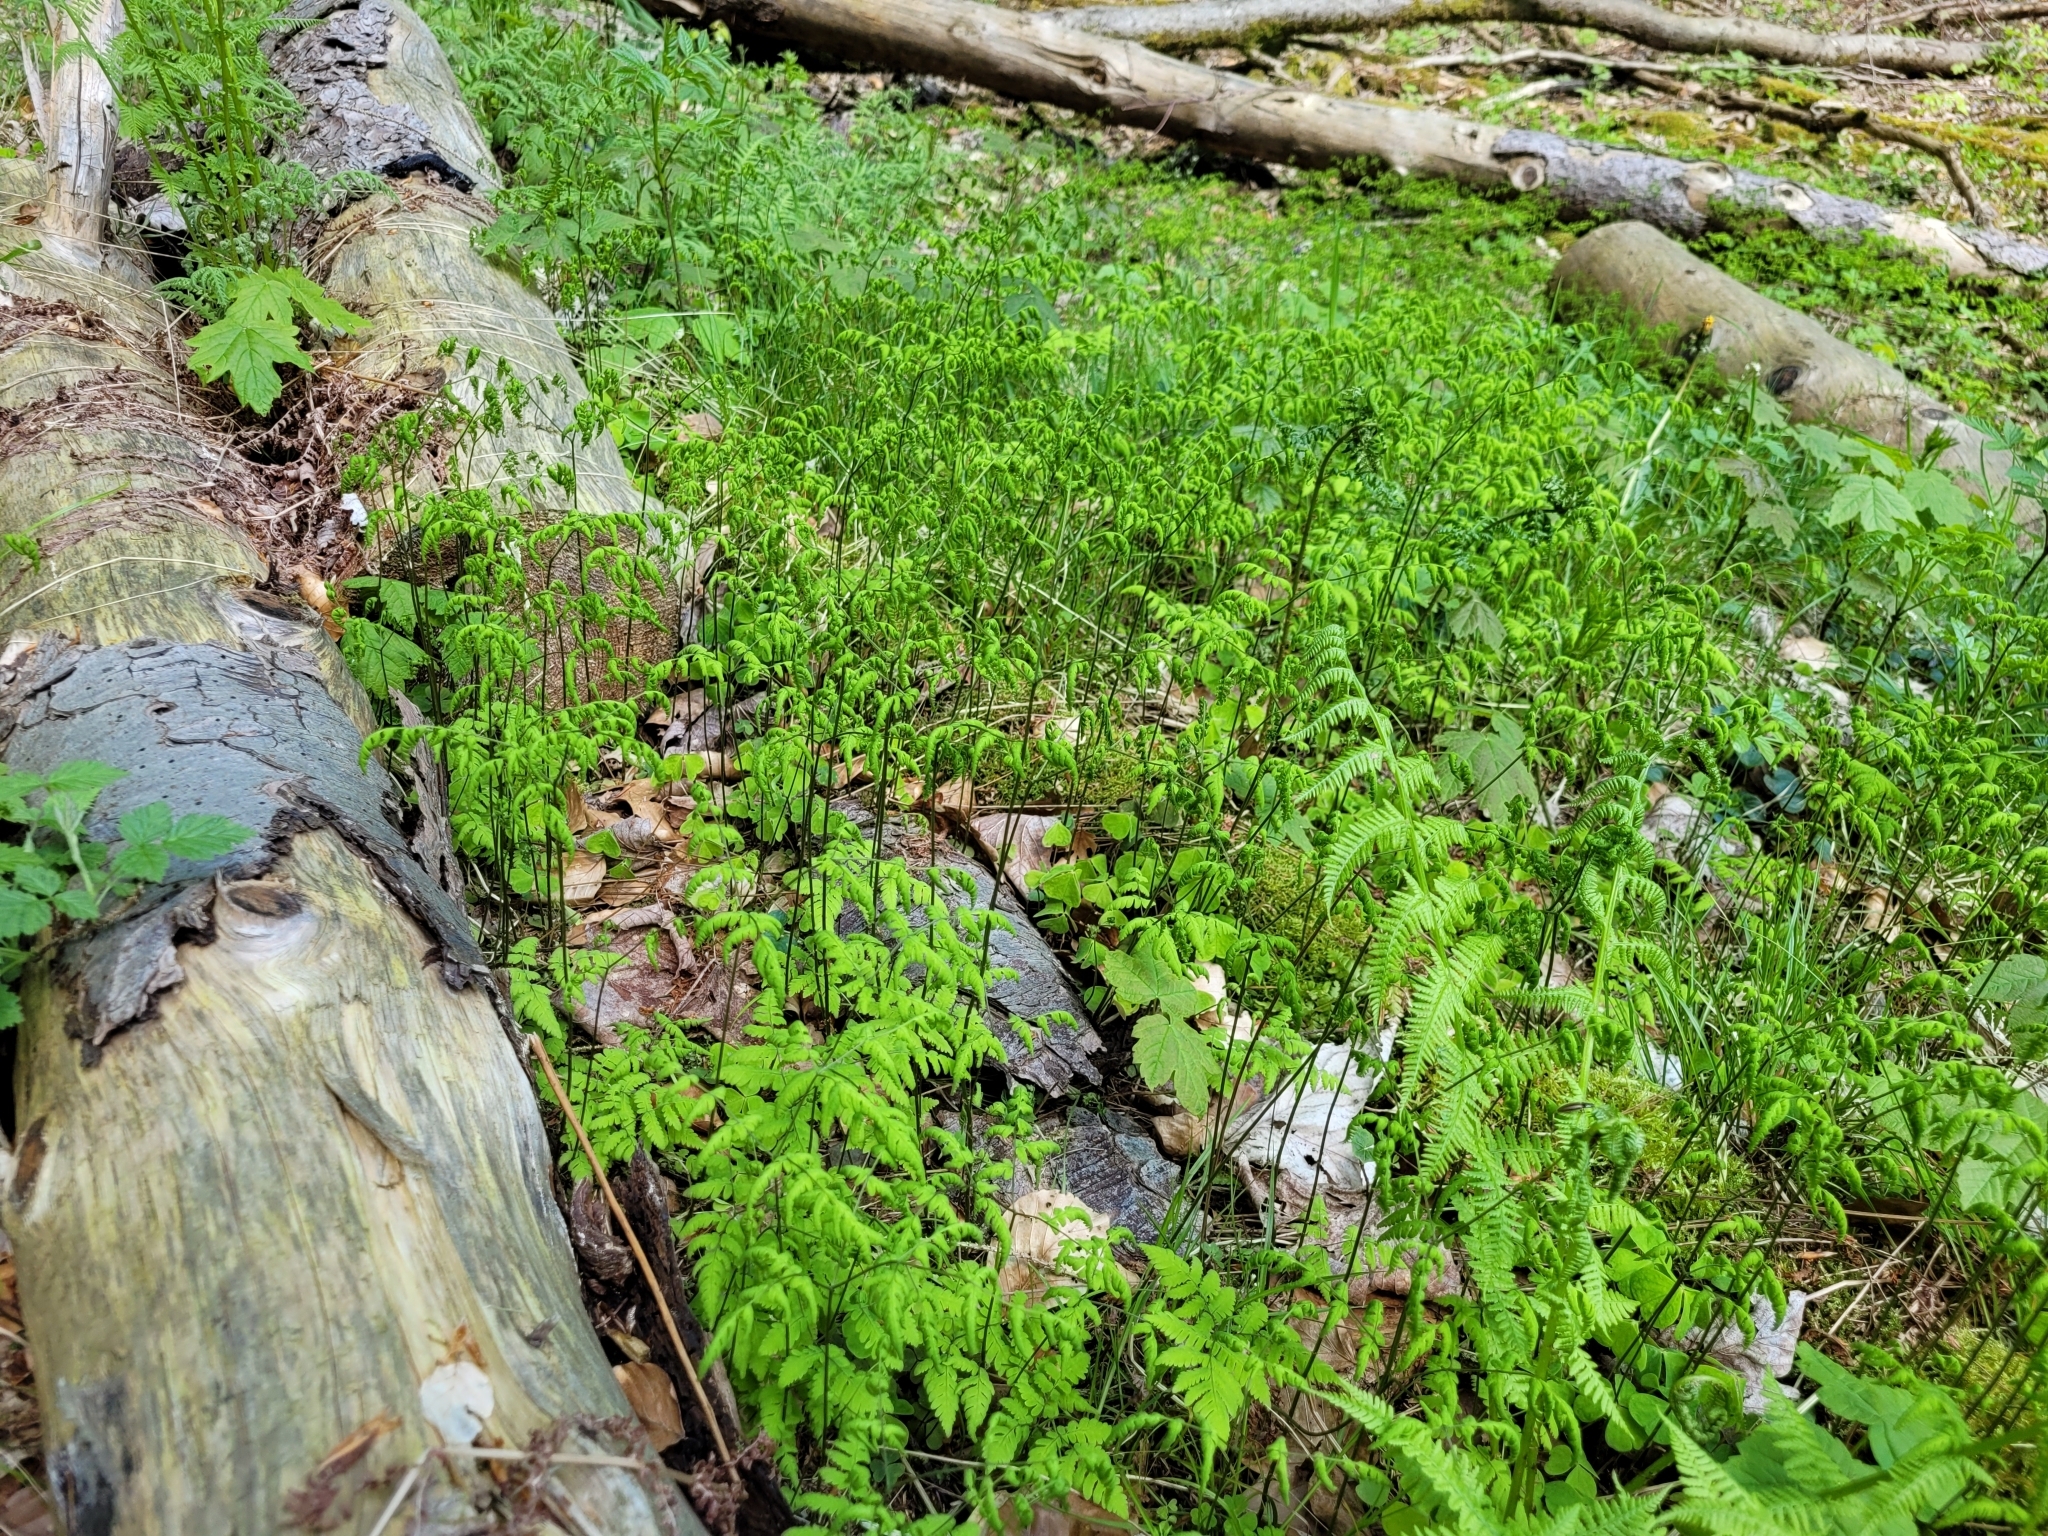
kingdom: Plantae
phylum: Tracheophyta
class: Polypodiopsida
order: Polypodiales
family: Cystopteridaceae
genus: Gymnocarpium
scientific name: Gymnocarpium dryopteris
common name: Oak fern
